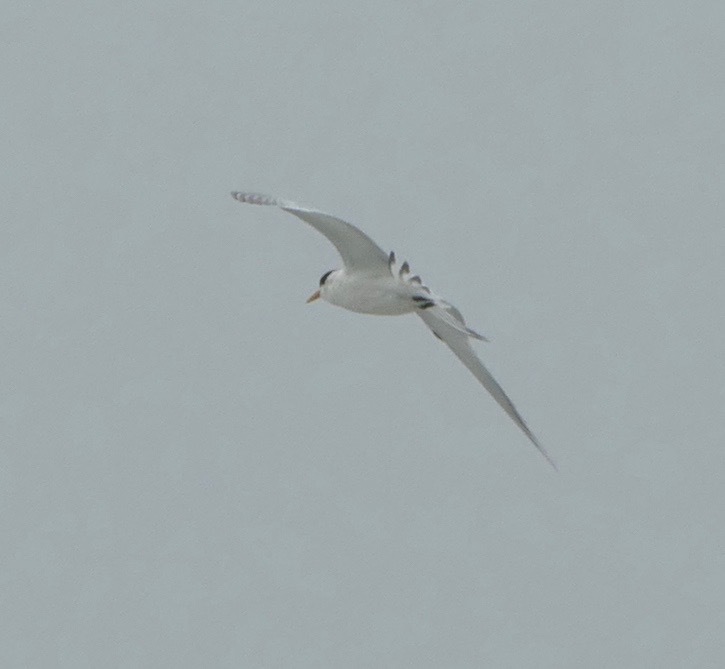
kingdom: Animalia
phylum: Chordata
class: Aves
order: Charadriiformes
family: Laridae
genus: Thalasseus
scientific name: Thalasseus elegans
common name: Elegant tern
